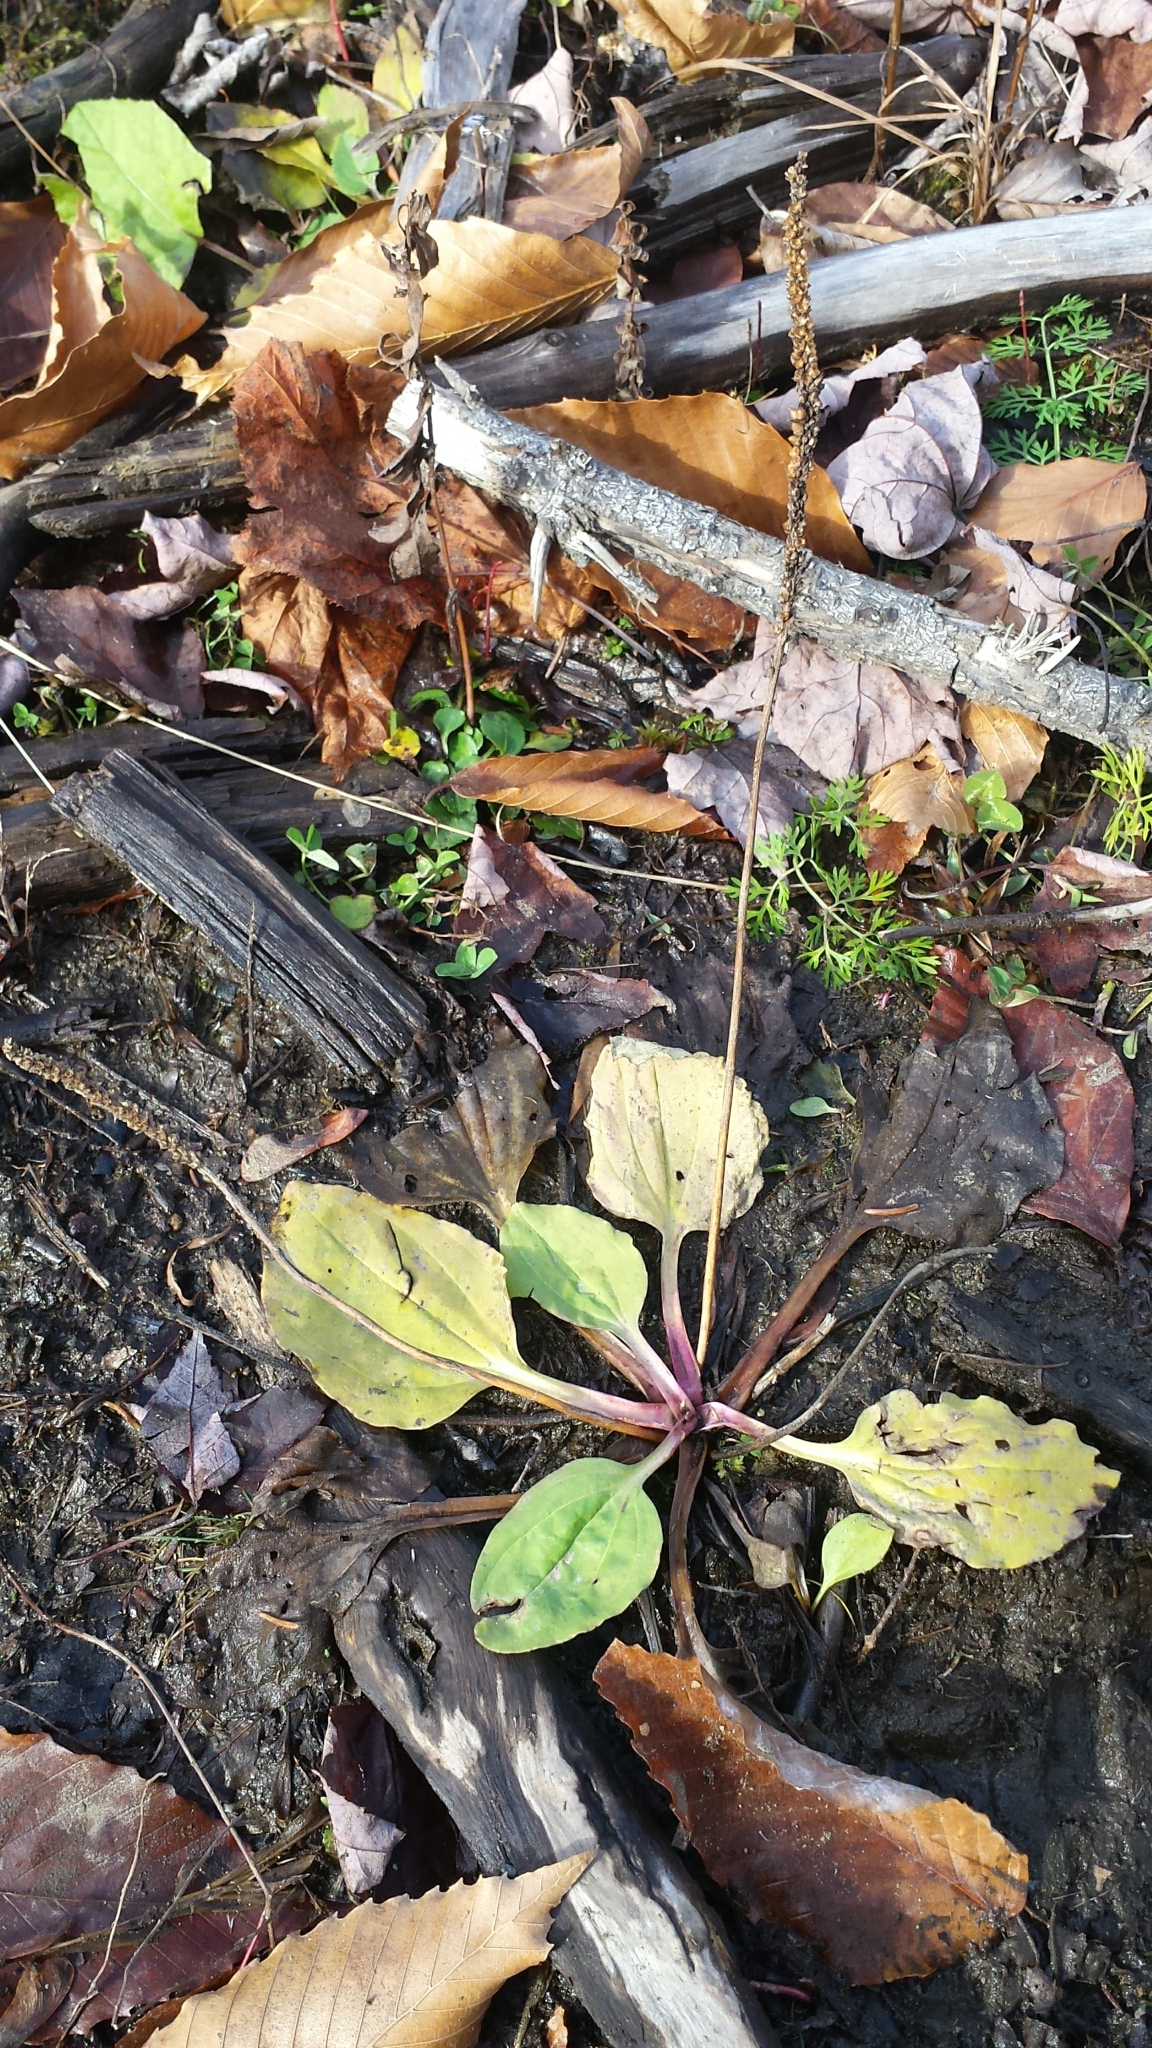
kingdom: Plantae
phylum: Tracheophyta
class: Magnoliopsida
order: Lamiales
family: Plantaginaceae
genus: Plantago
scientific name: Plantago rugelii
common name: American plantain
